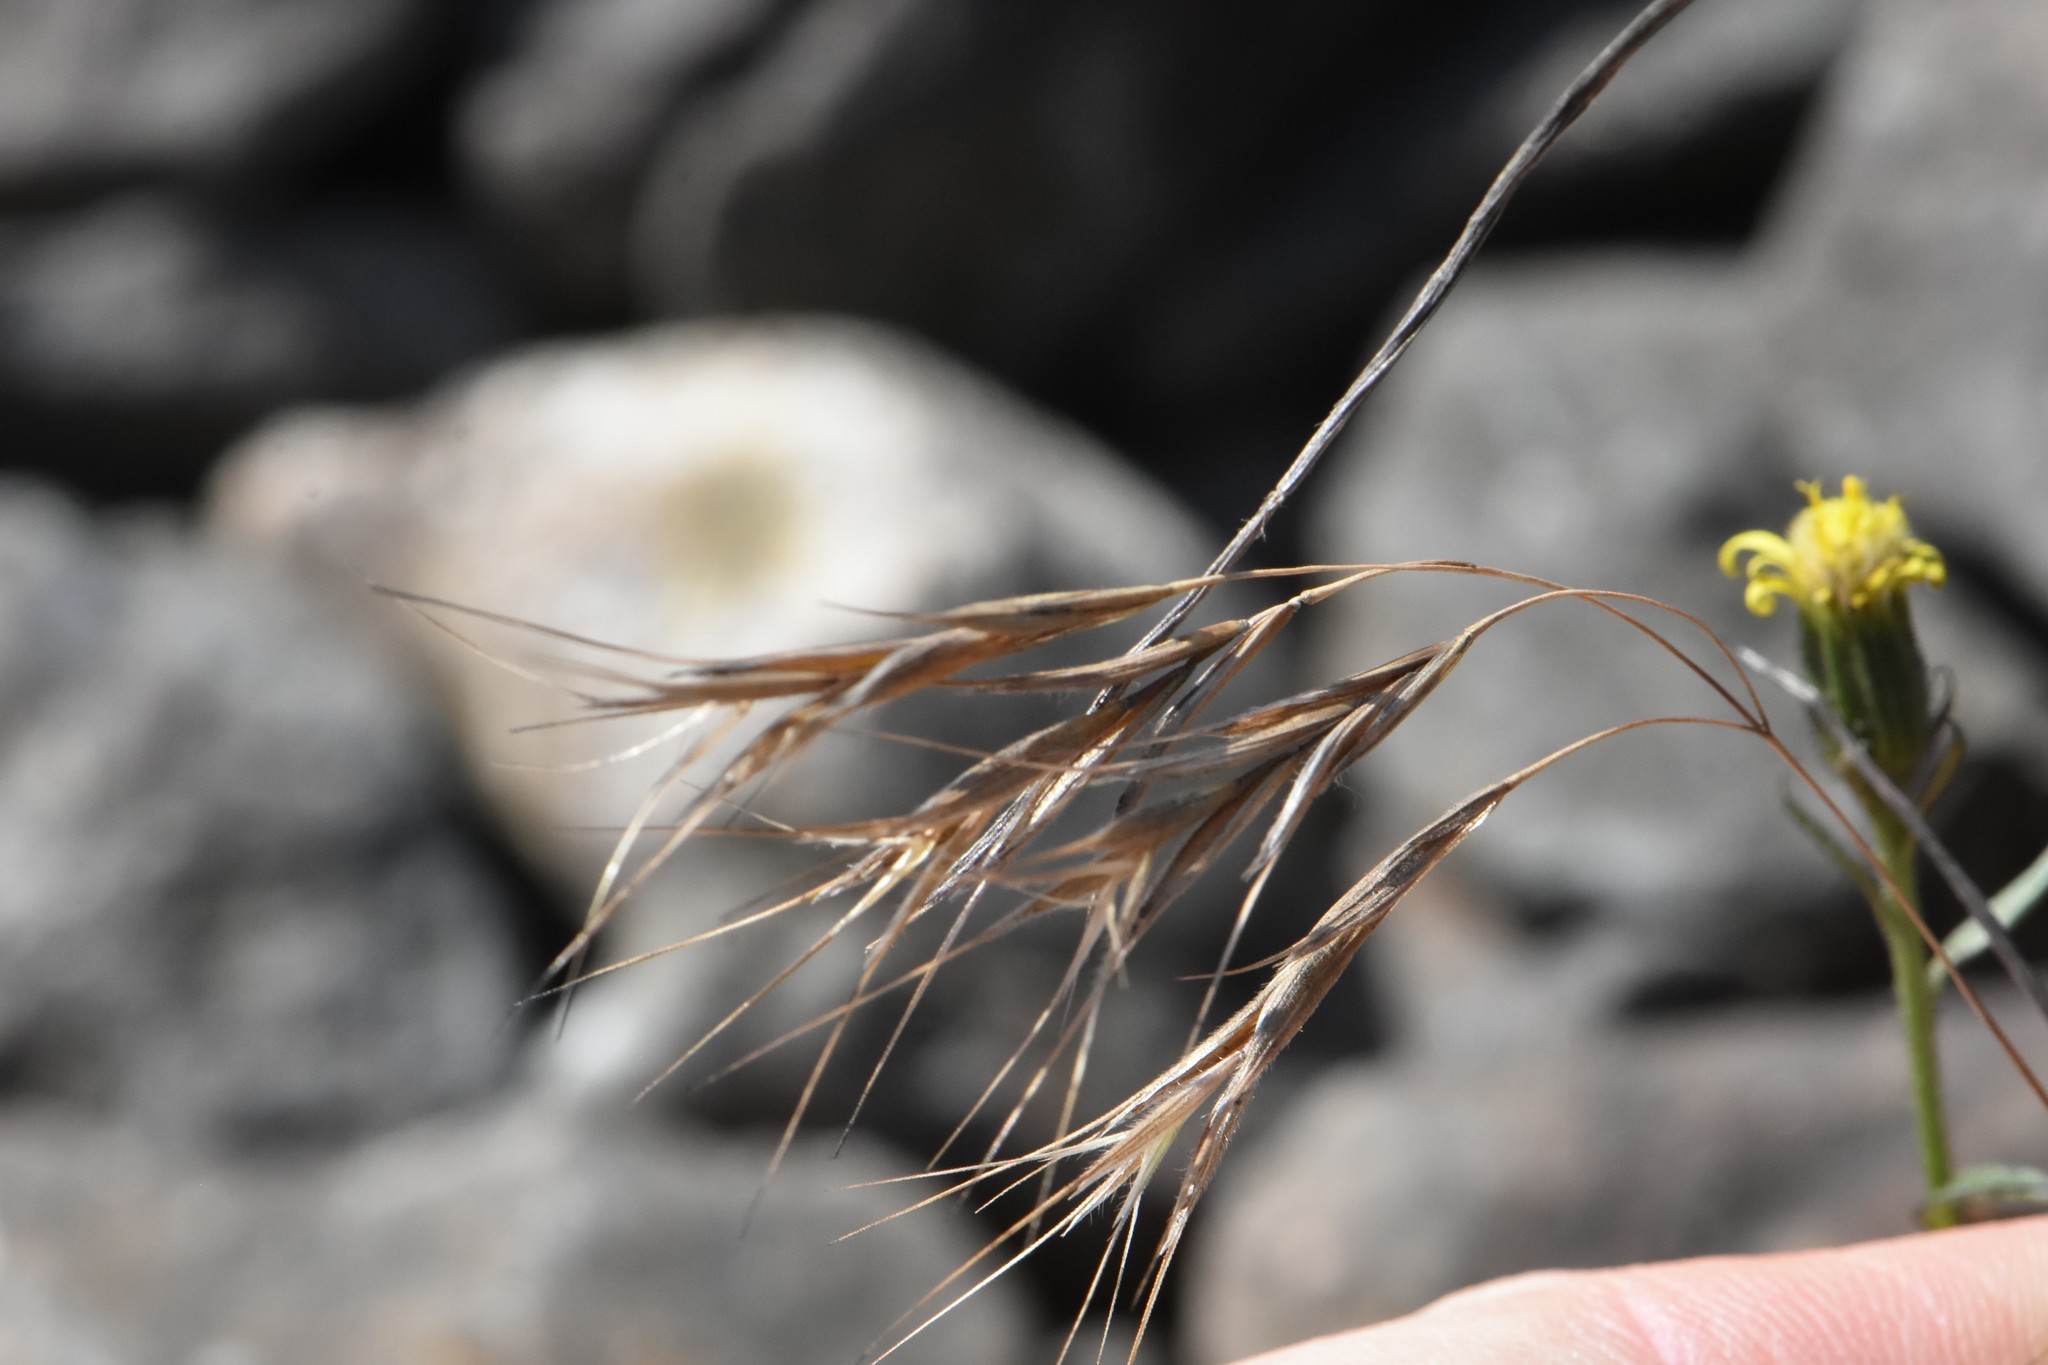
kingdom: Plantae
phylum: Tracheophyta
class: Liliopsida
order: Poales
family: Poaceae
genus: Bromus
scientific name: Bromus tectorum
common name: Cheatgrass
